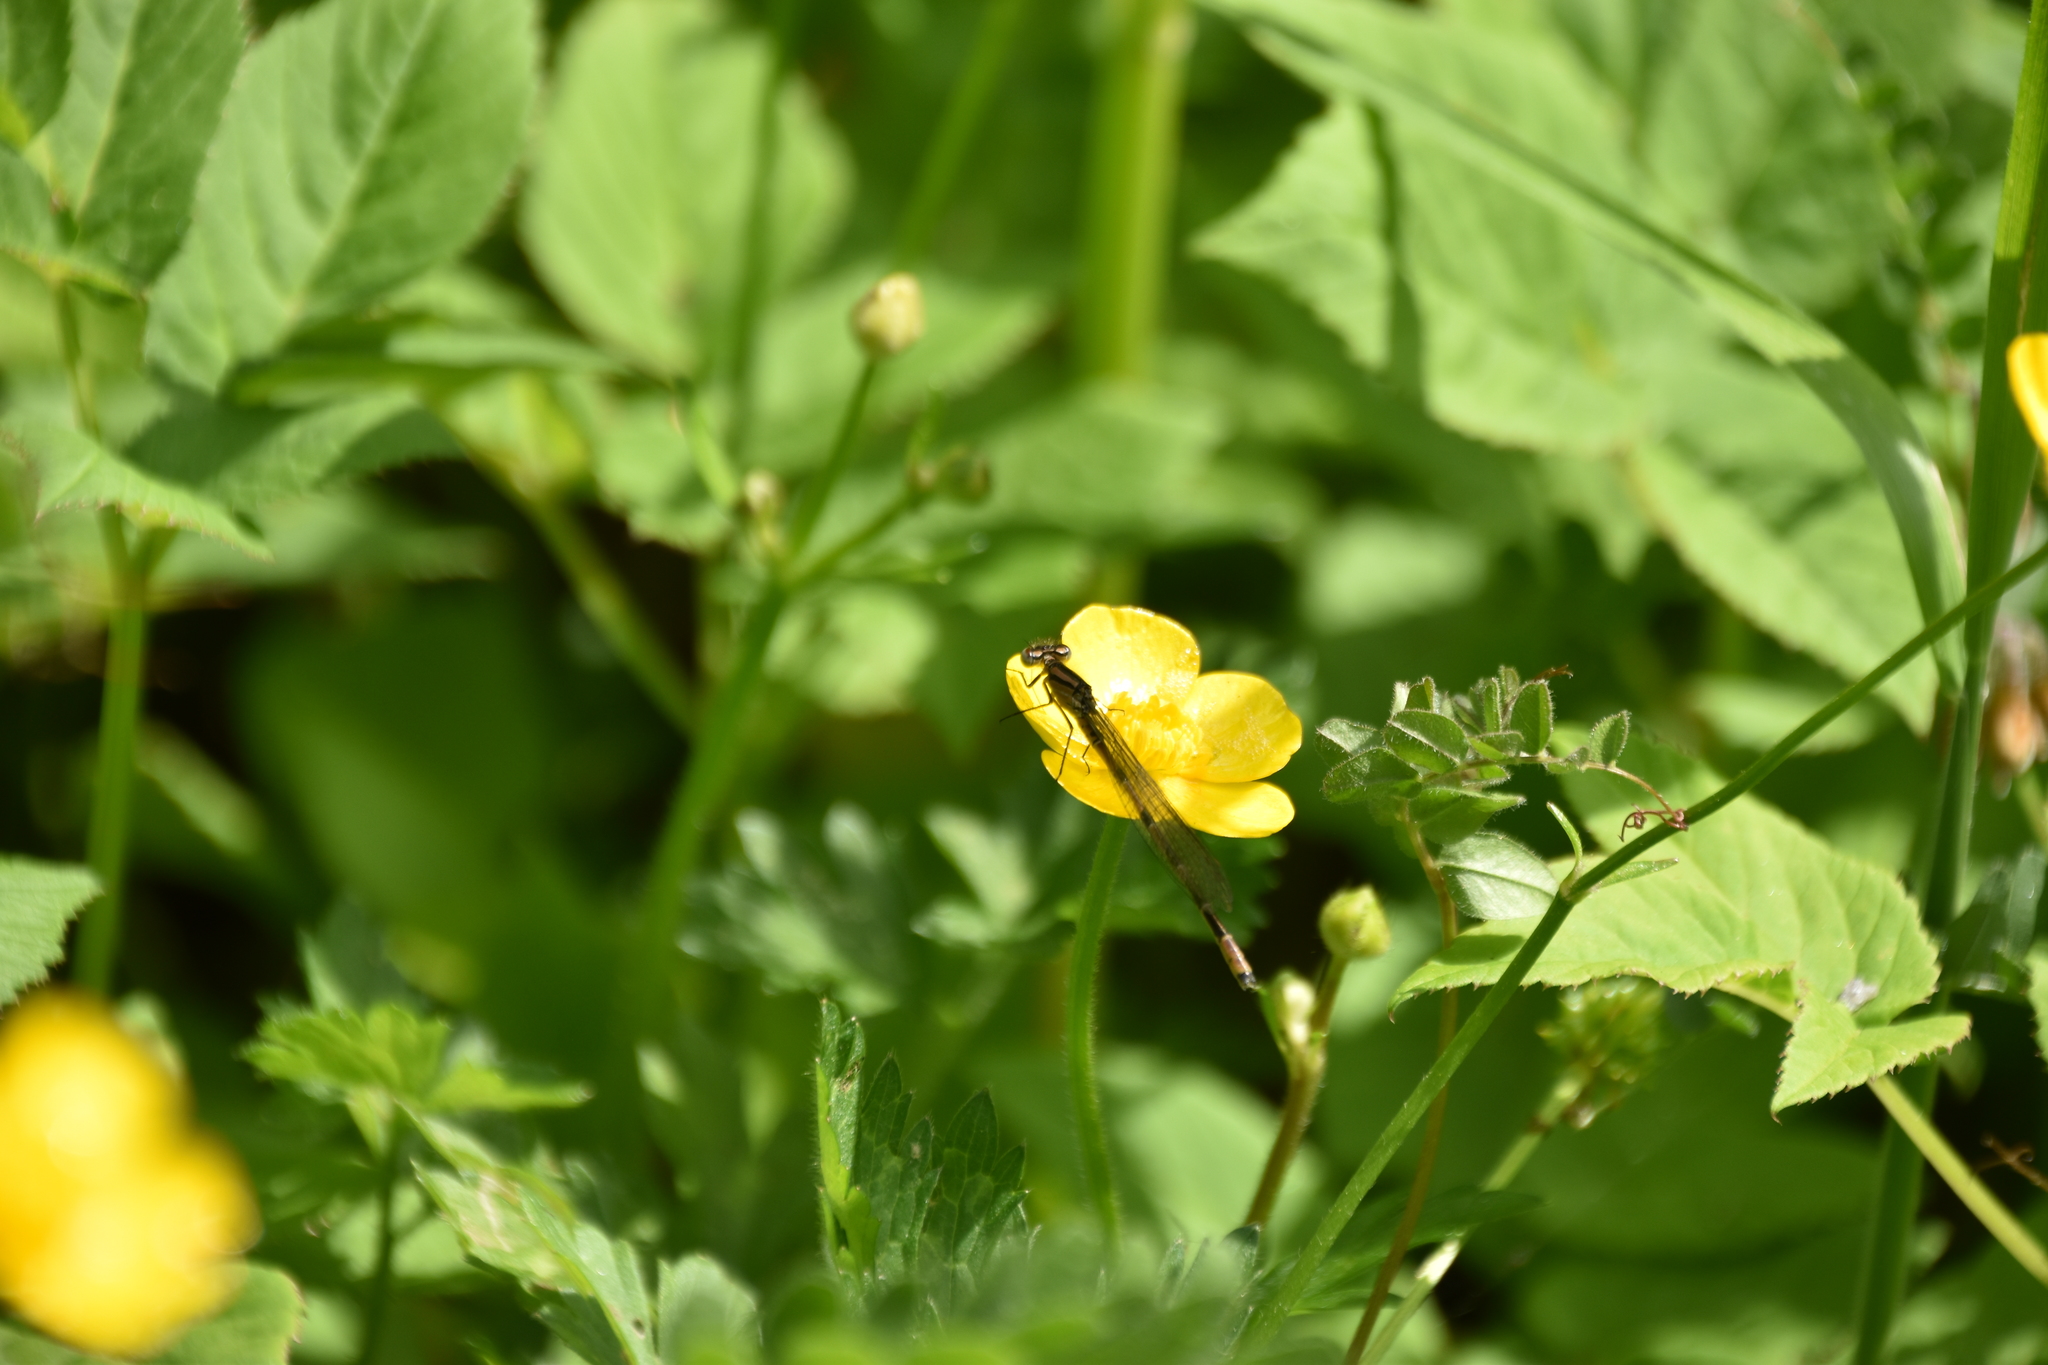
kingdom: Animalia
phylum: Arthropoda
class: Insecta
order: Odonata
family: Coenagrionidae
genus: Enallagma
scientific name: Enallagma cyathigerum
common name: Common blue damselfly
